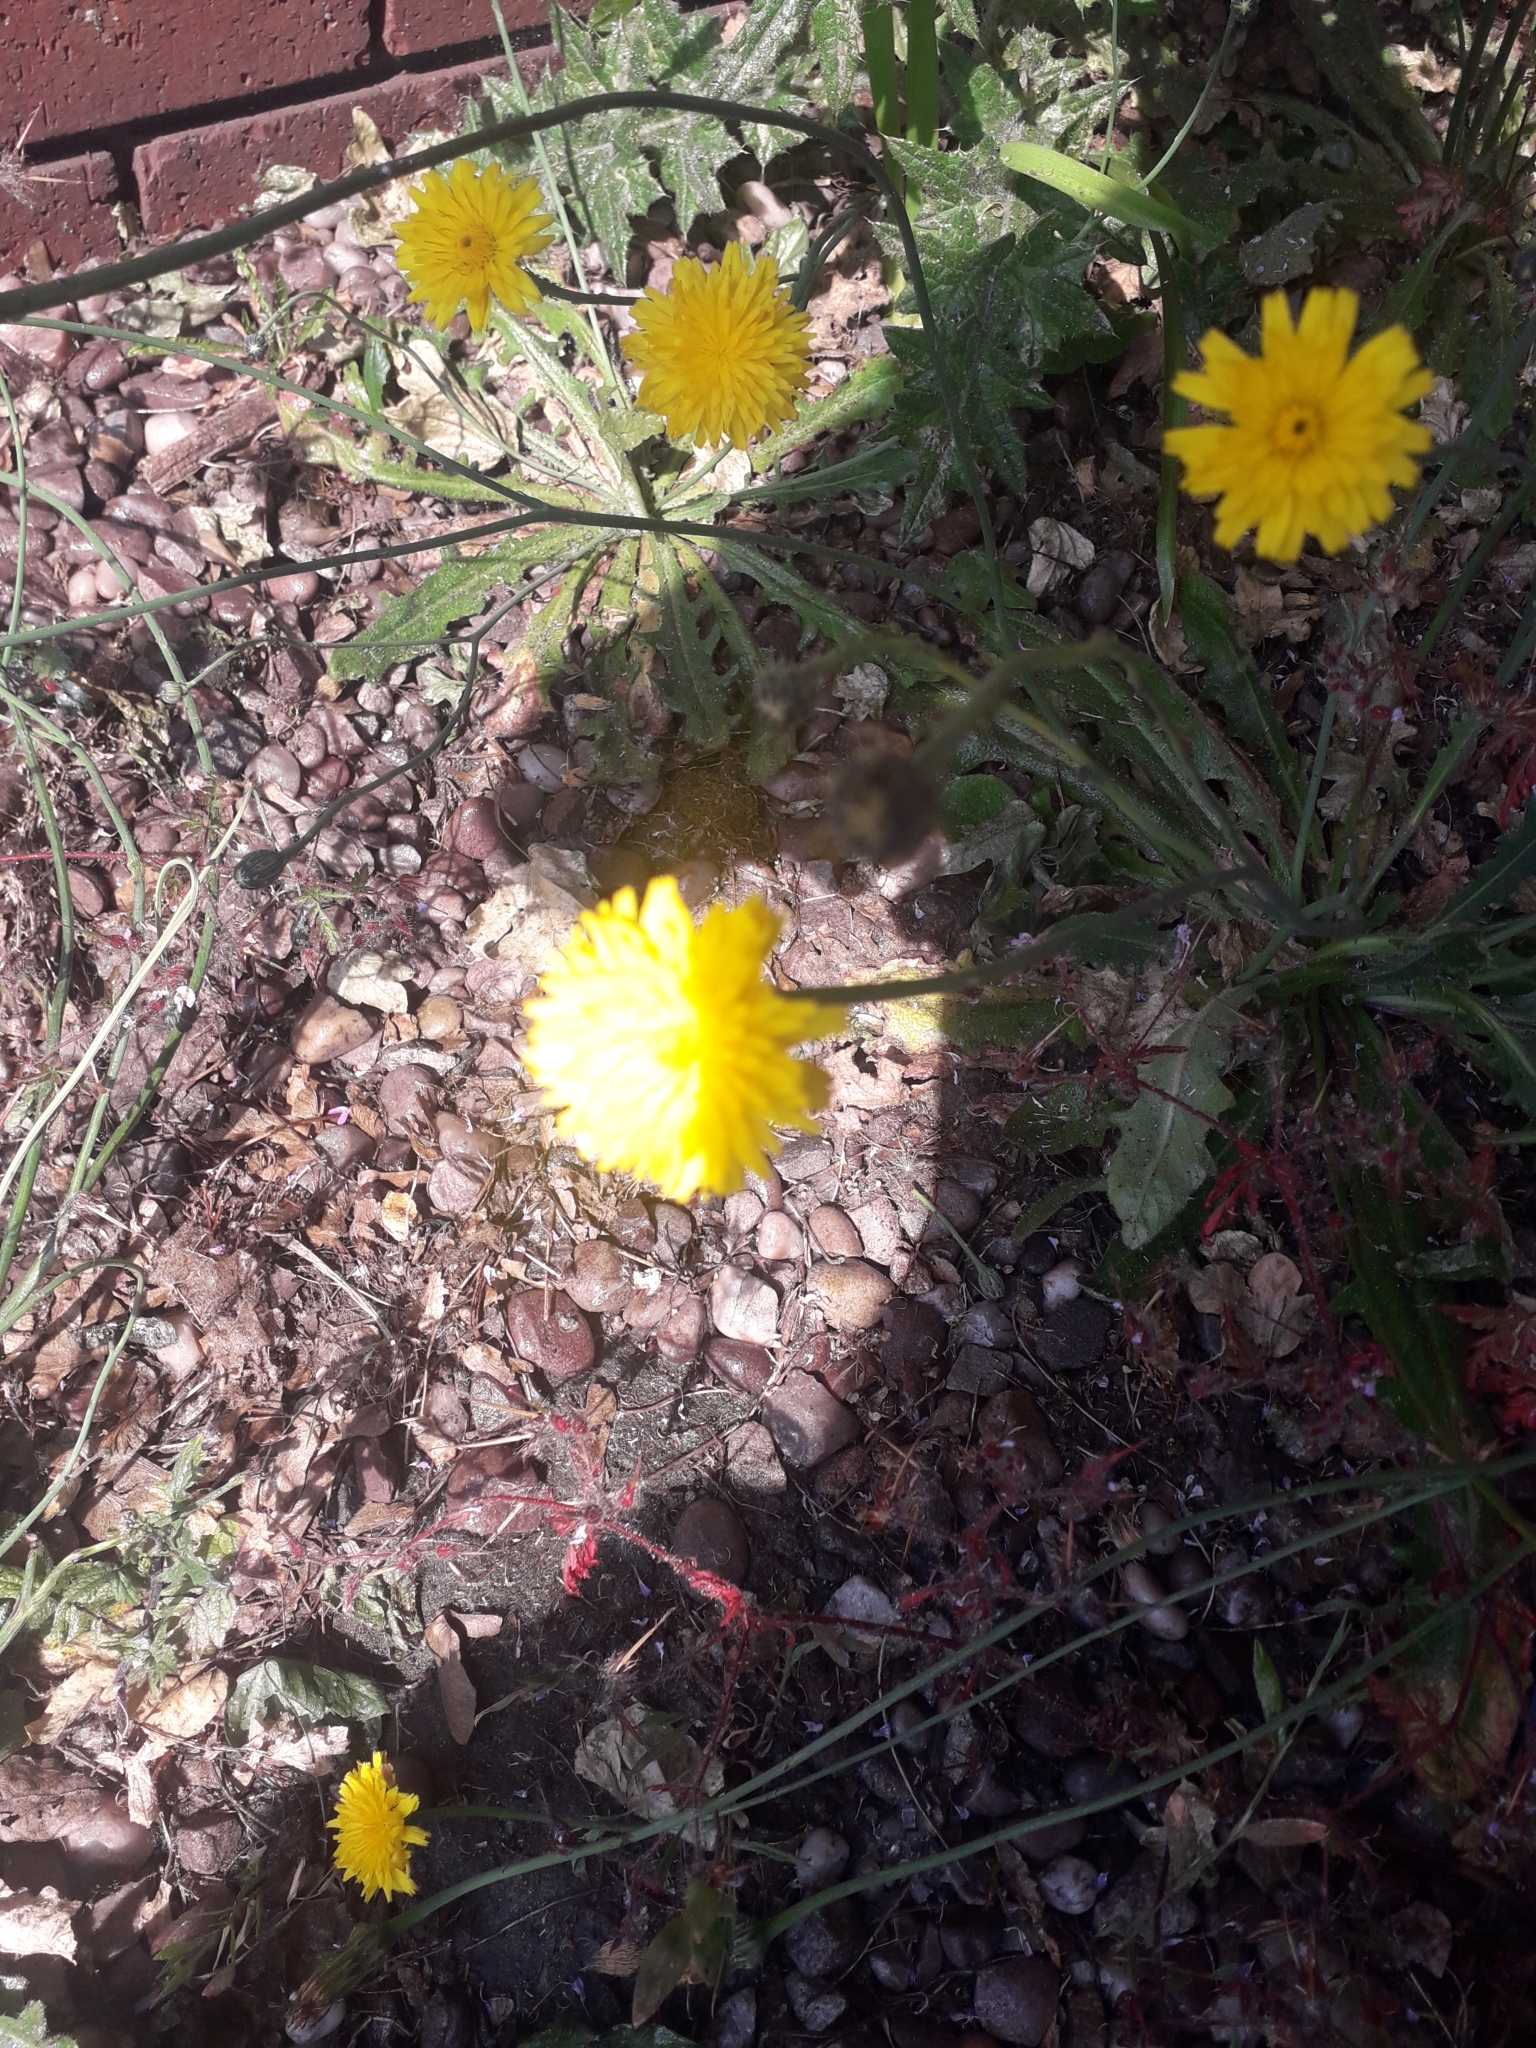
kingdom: Plantae
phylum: Tracheophyta
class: Magnoliopsida
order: Asterales
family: Asteraceae
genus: Hypochaeris
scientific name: Hypochaeris radicata
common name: Flatweed
